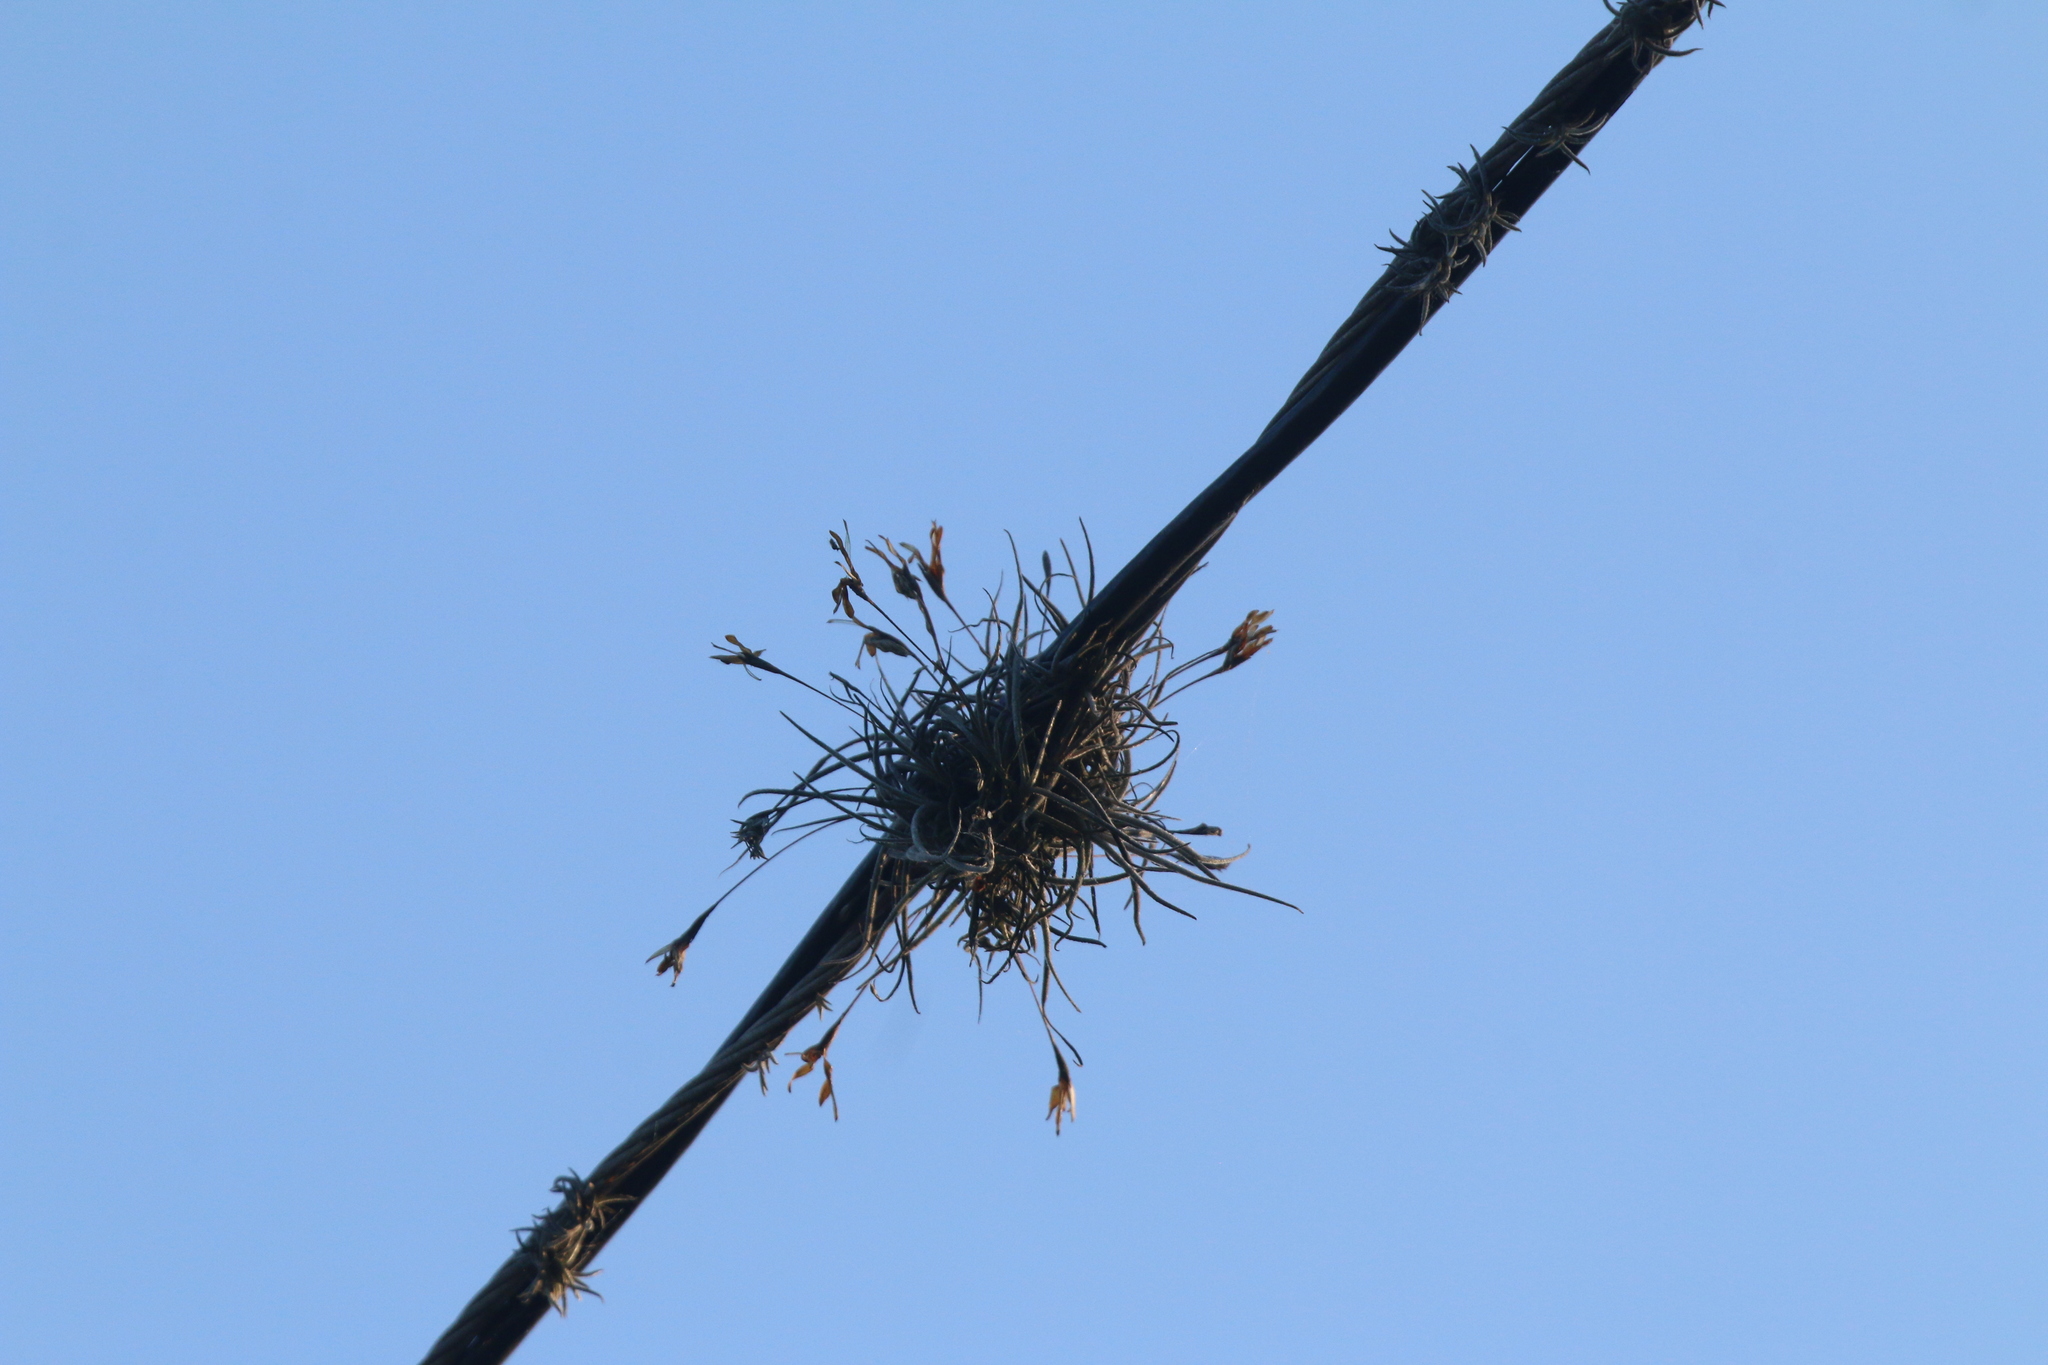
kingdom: Plantae
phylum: Tracheophyta
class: Liliopsida
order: Poales
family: Bromeliaceae
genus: Tillandsia
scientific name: Tillandsia recurvata
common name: Small ballmoss
